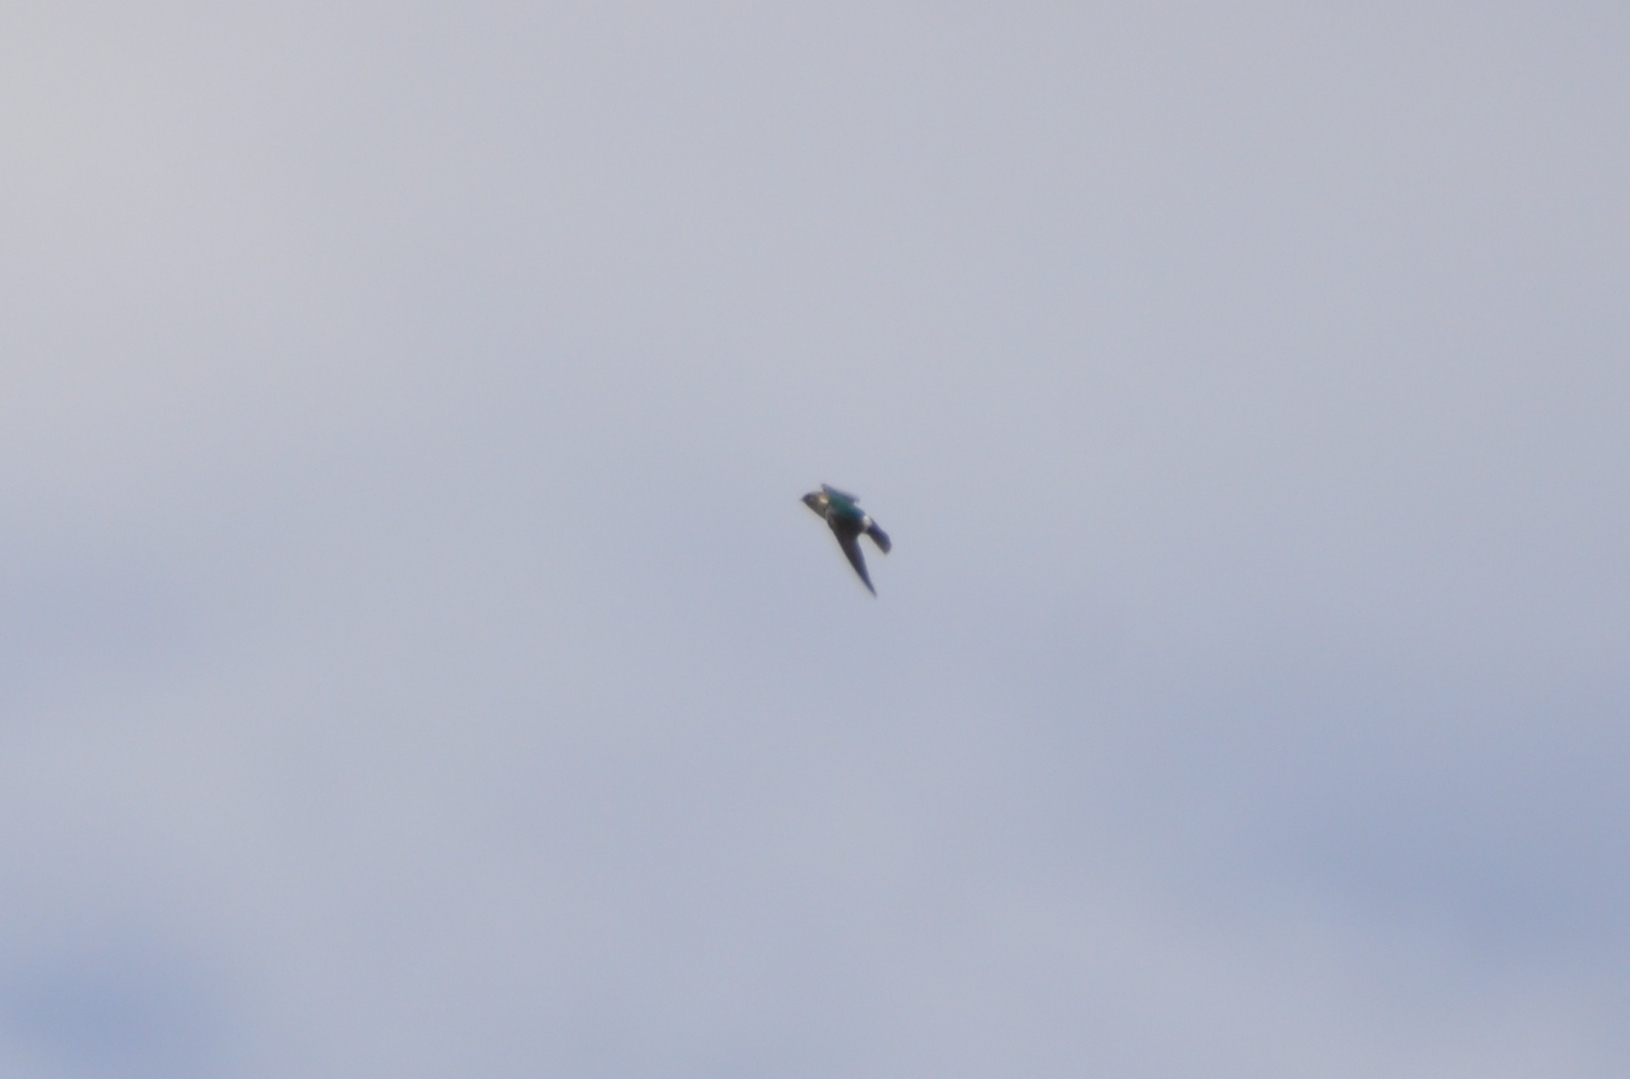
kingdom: Animalia
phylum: Chordata
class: Aves
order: Passeriformes
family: Hirundinidae
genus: Tachycineta
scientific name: Tachycineta thalassina
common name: Violet-green swallow
